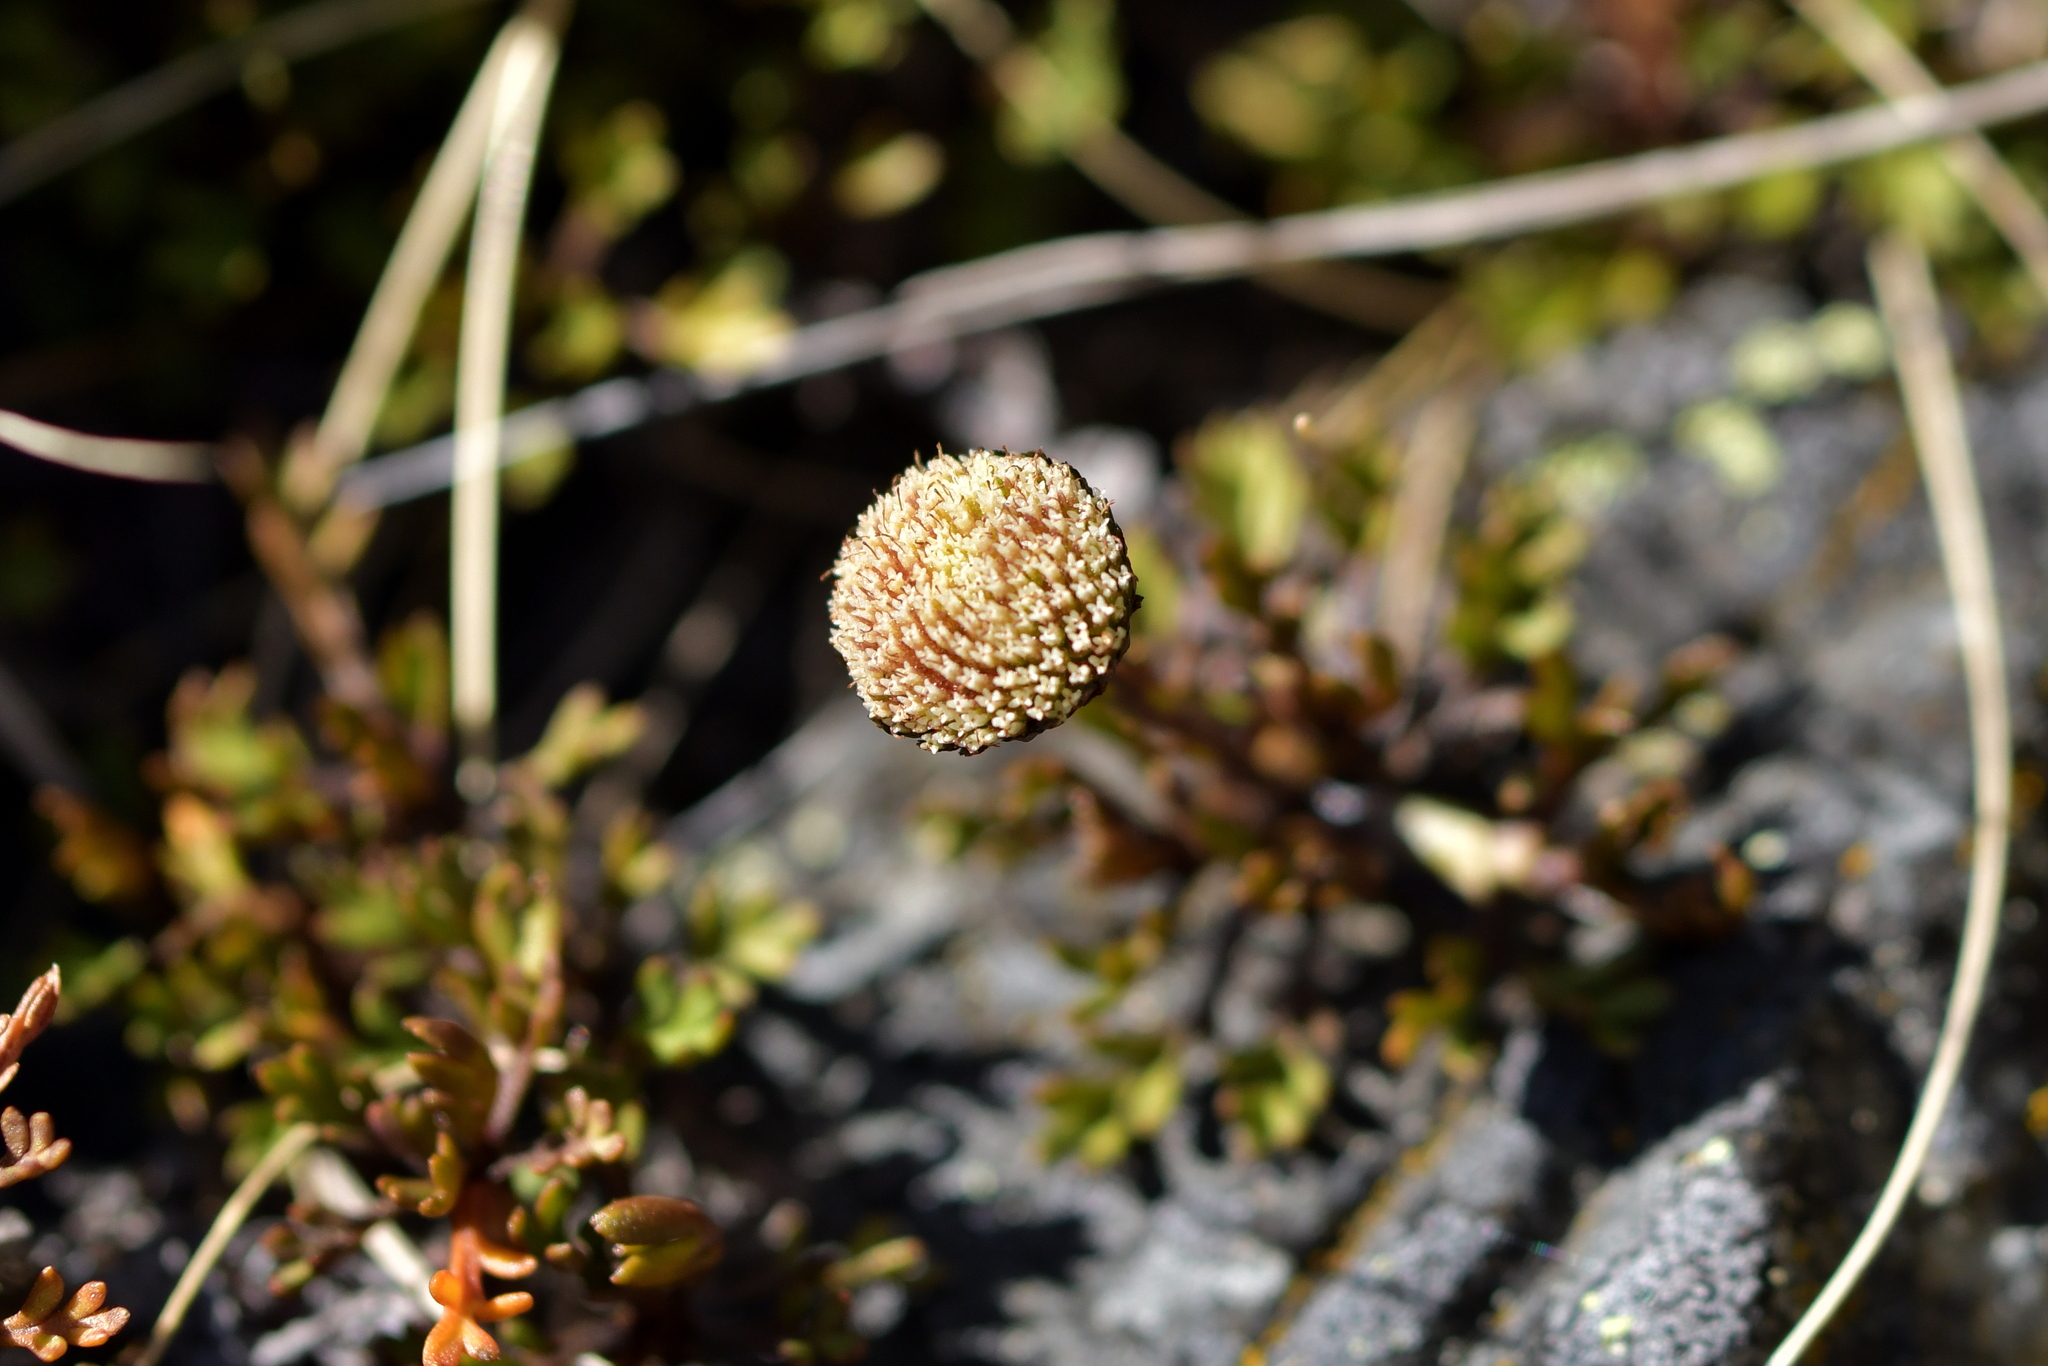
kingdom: Plantae
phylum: Tracheophyta
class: Magnoliopsida
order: Asterales
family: Asteraceae
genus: Leptinella
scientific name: Leptinella pyrethrifolia
